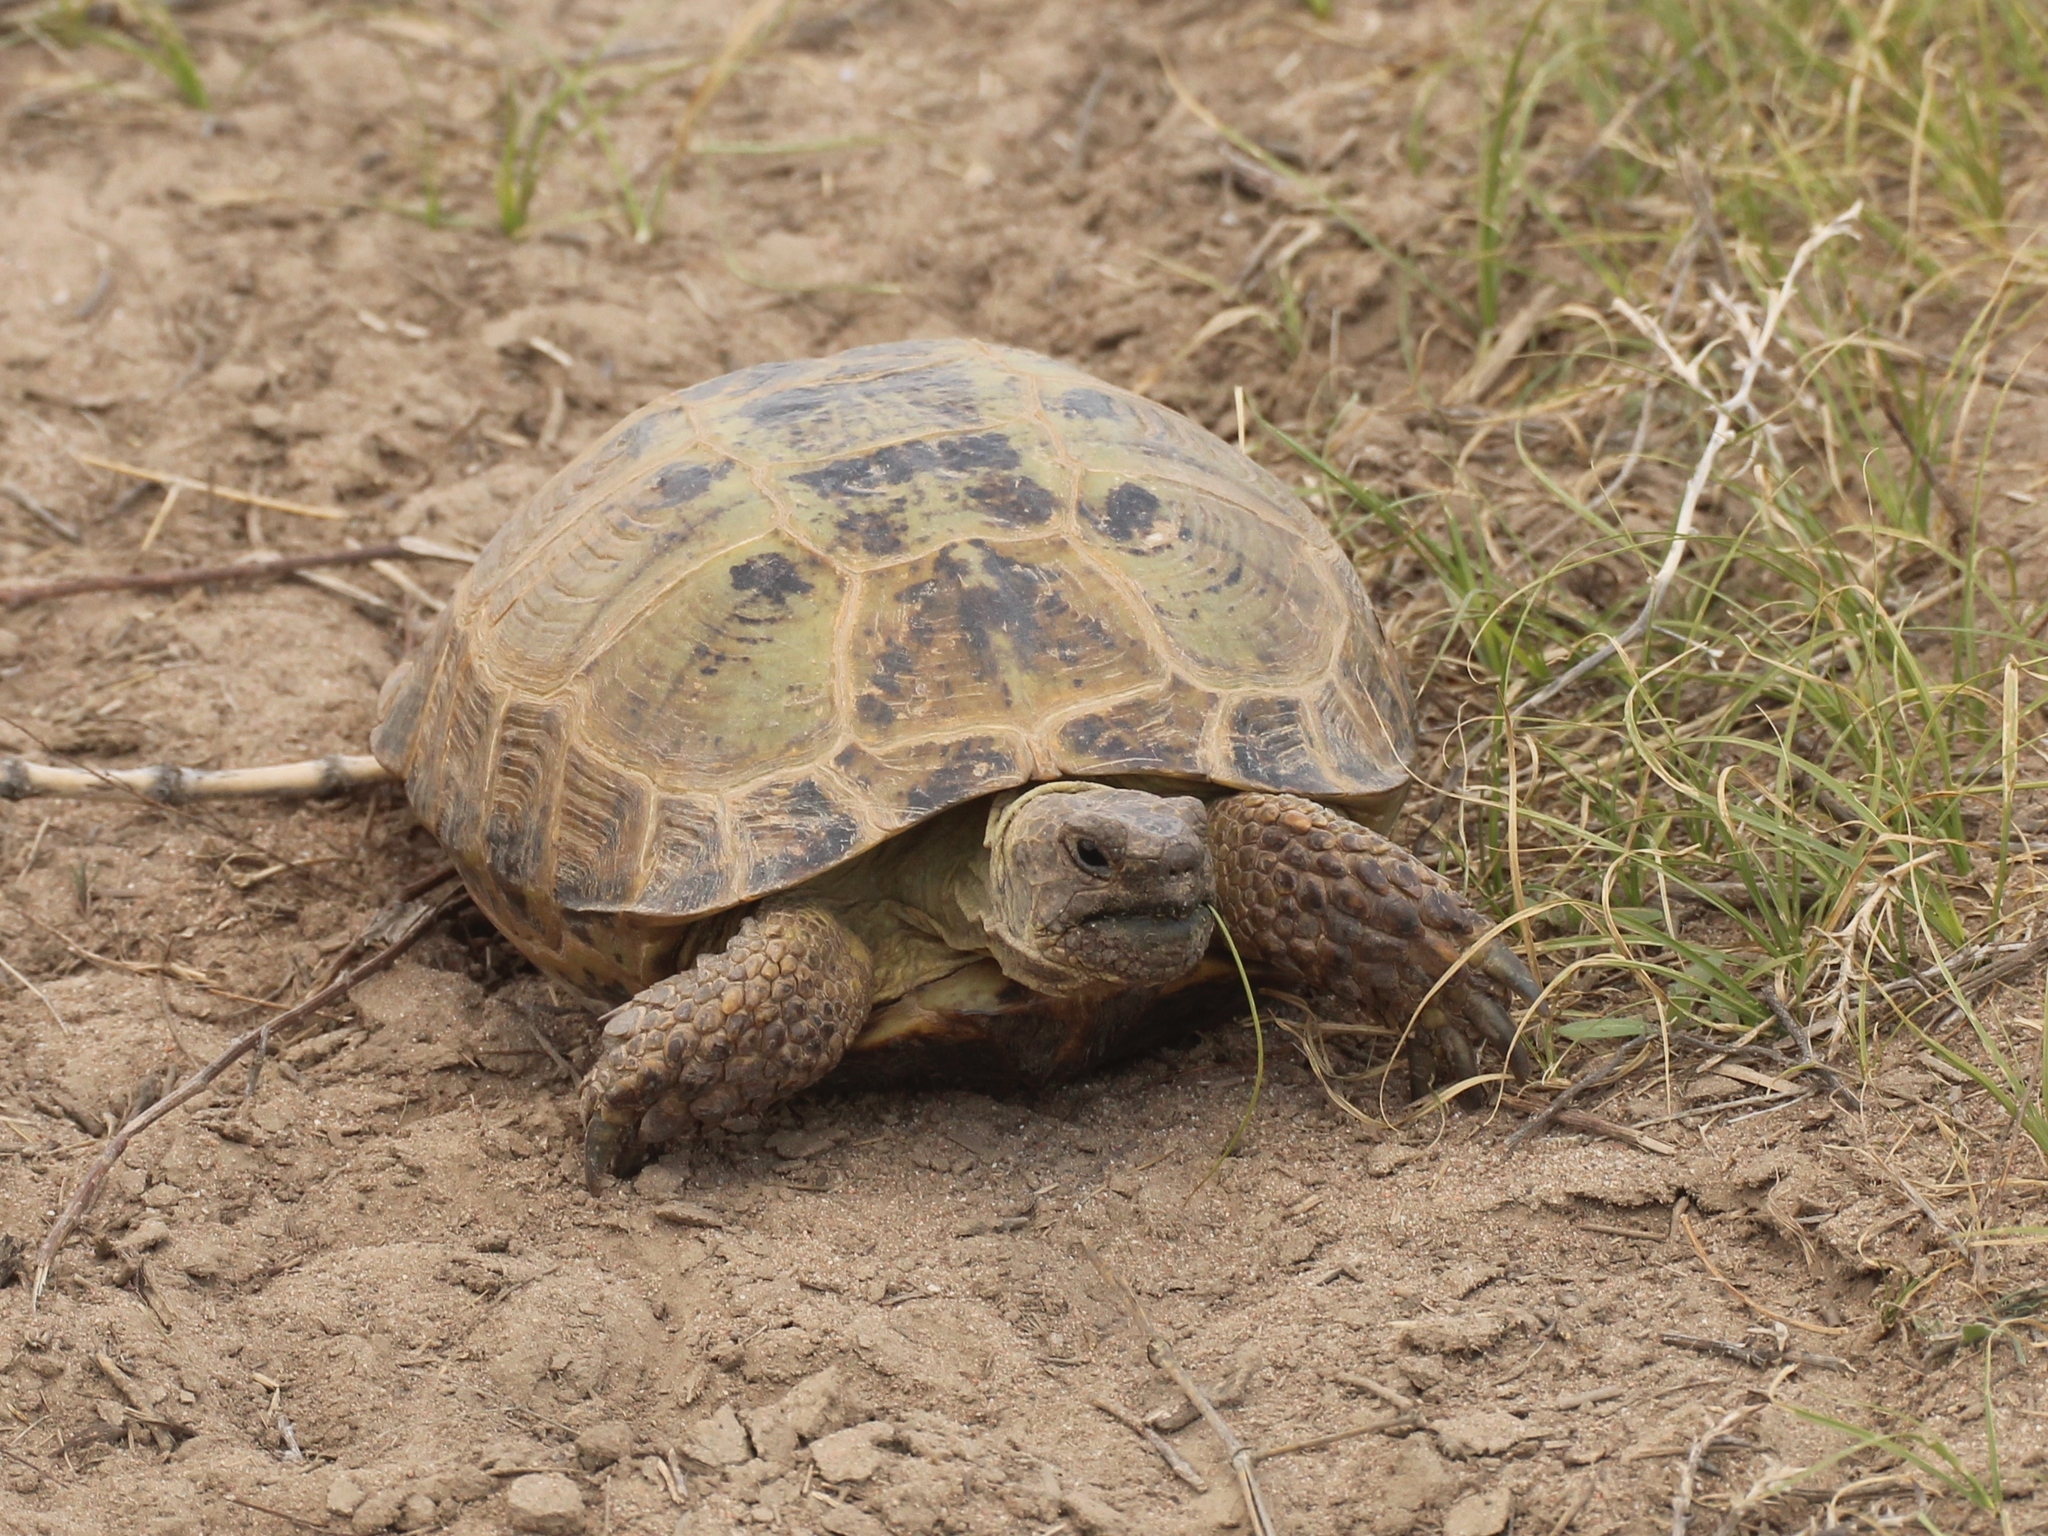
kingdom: Animalia
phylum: Chordata
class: Testudines
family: Testudinidae
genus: Testudo
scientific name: Testudo horsfieldii
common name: Central asia tortoise
